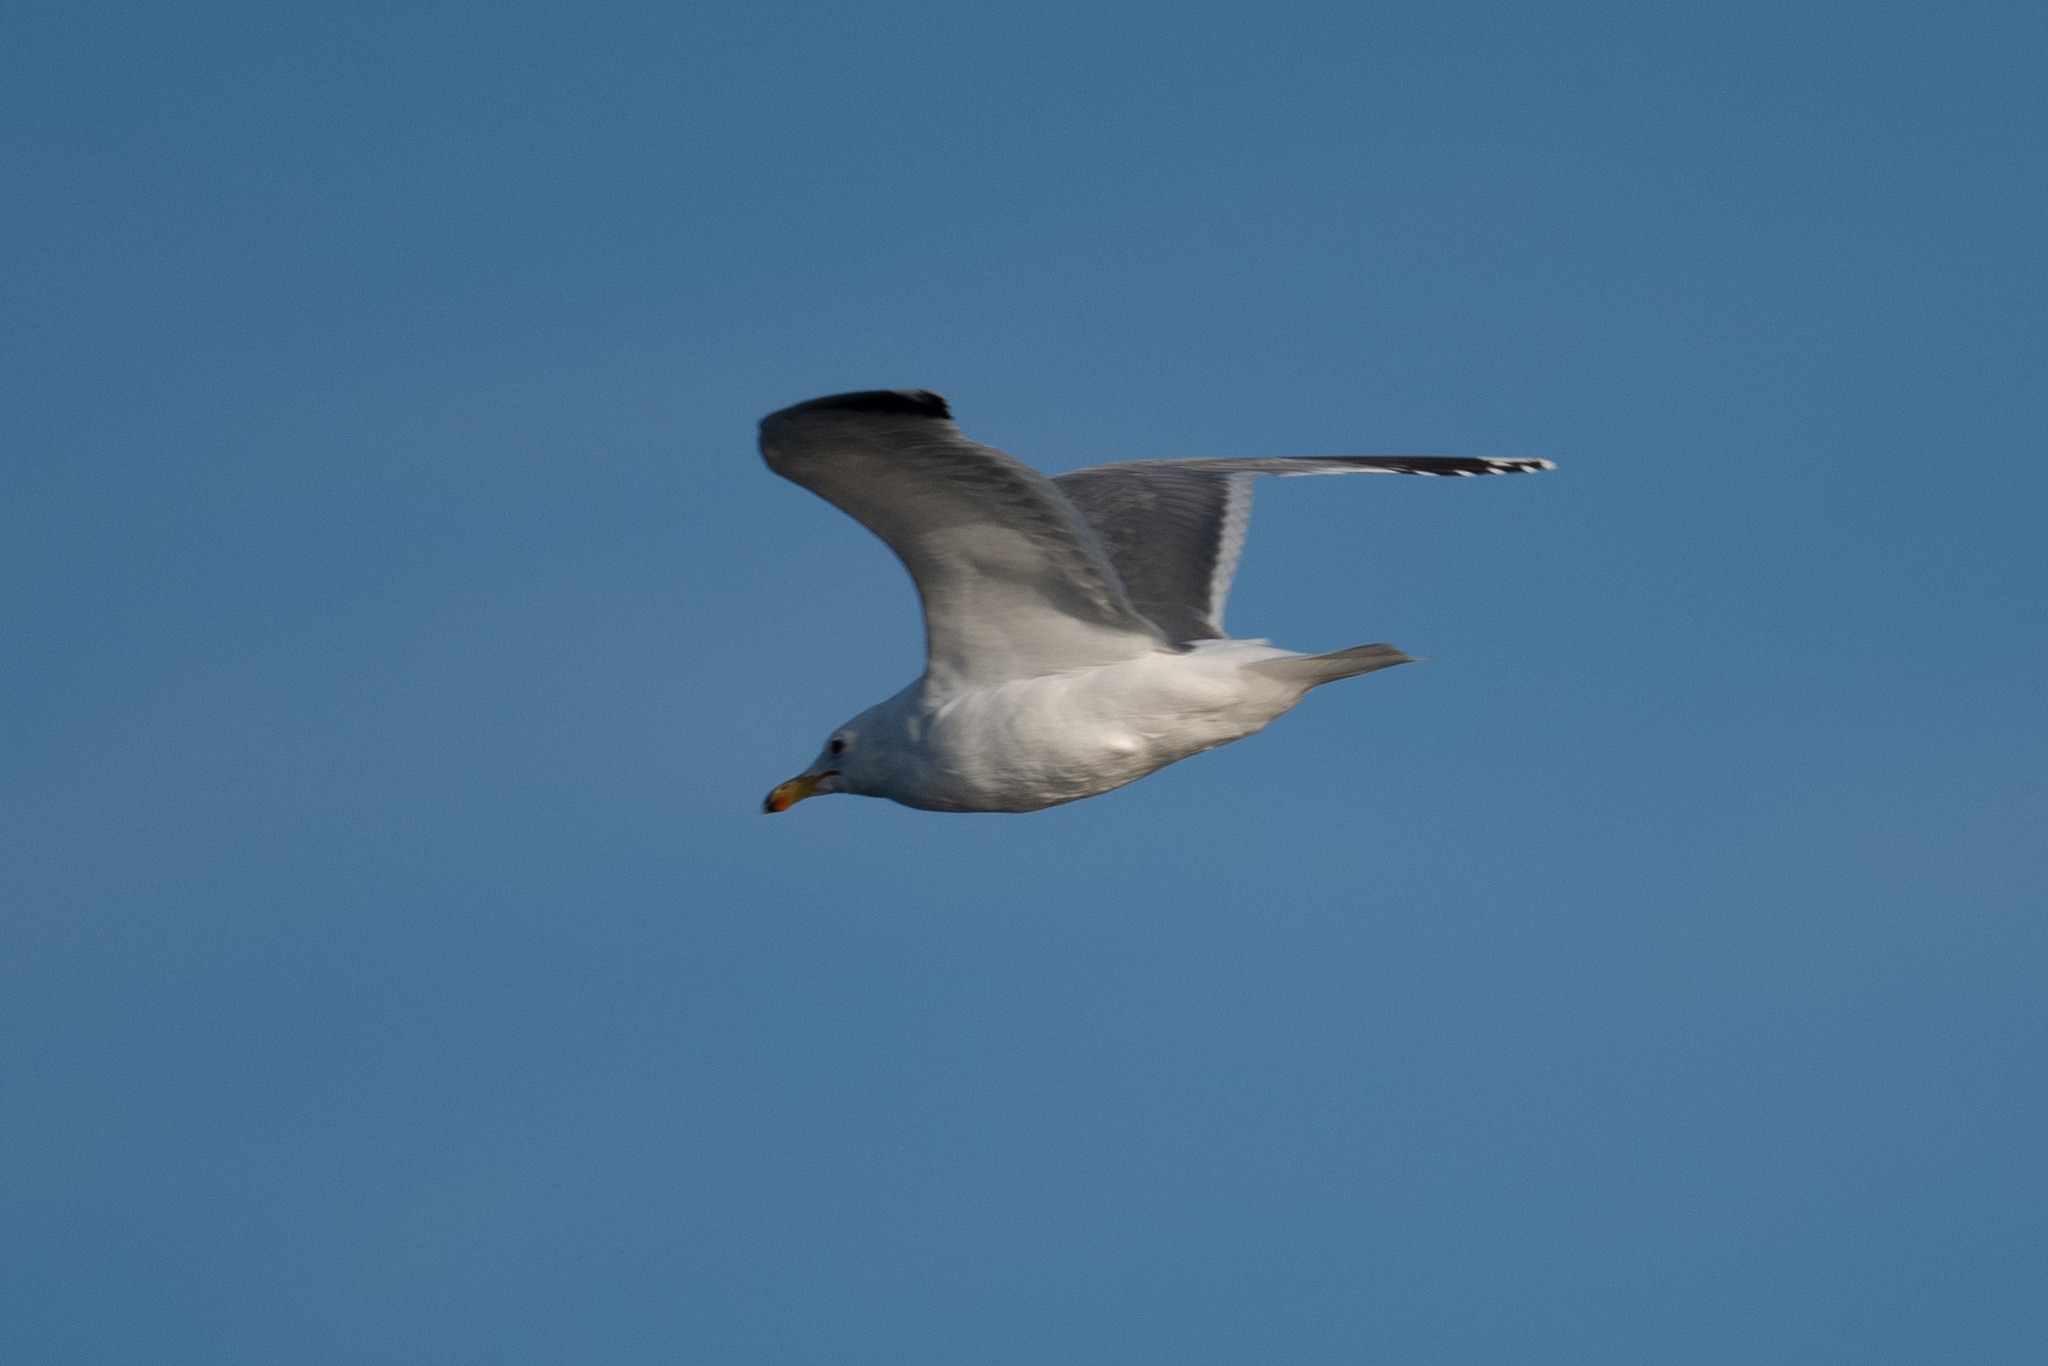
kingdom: Animalia
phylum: Chordata
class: Aves
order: Charadriiformes
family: Laridae
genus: Larus
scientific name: Larus californicus
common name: California gull
